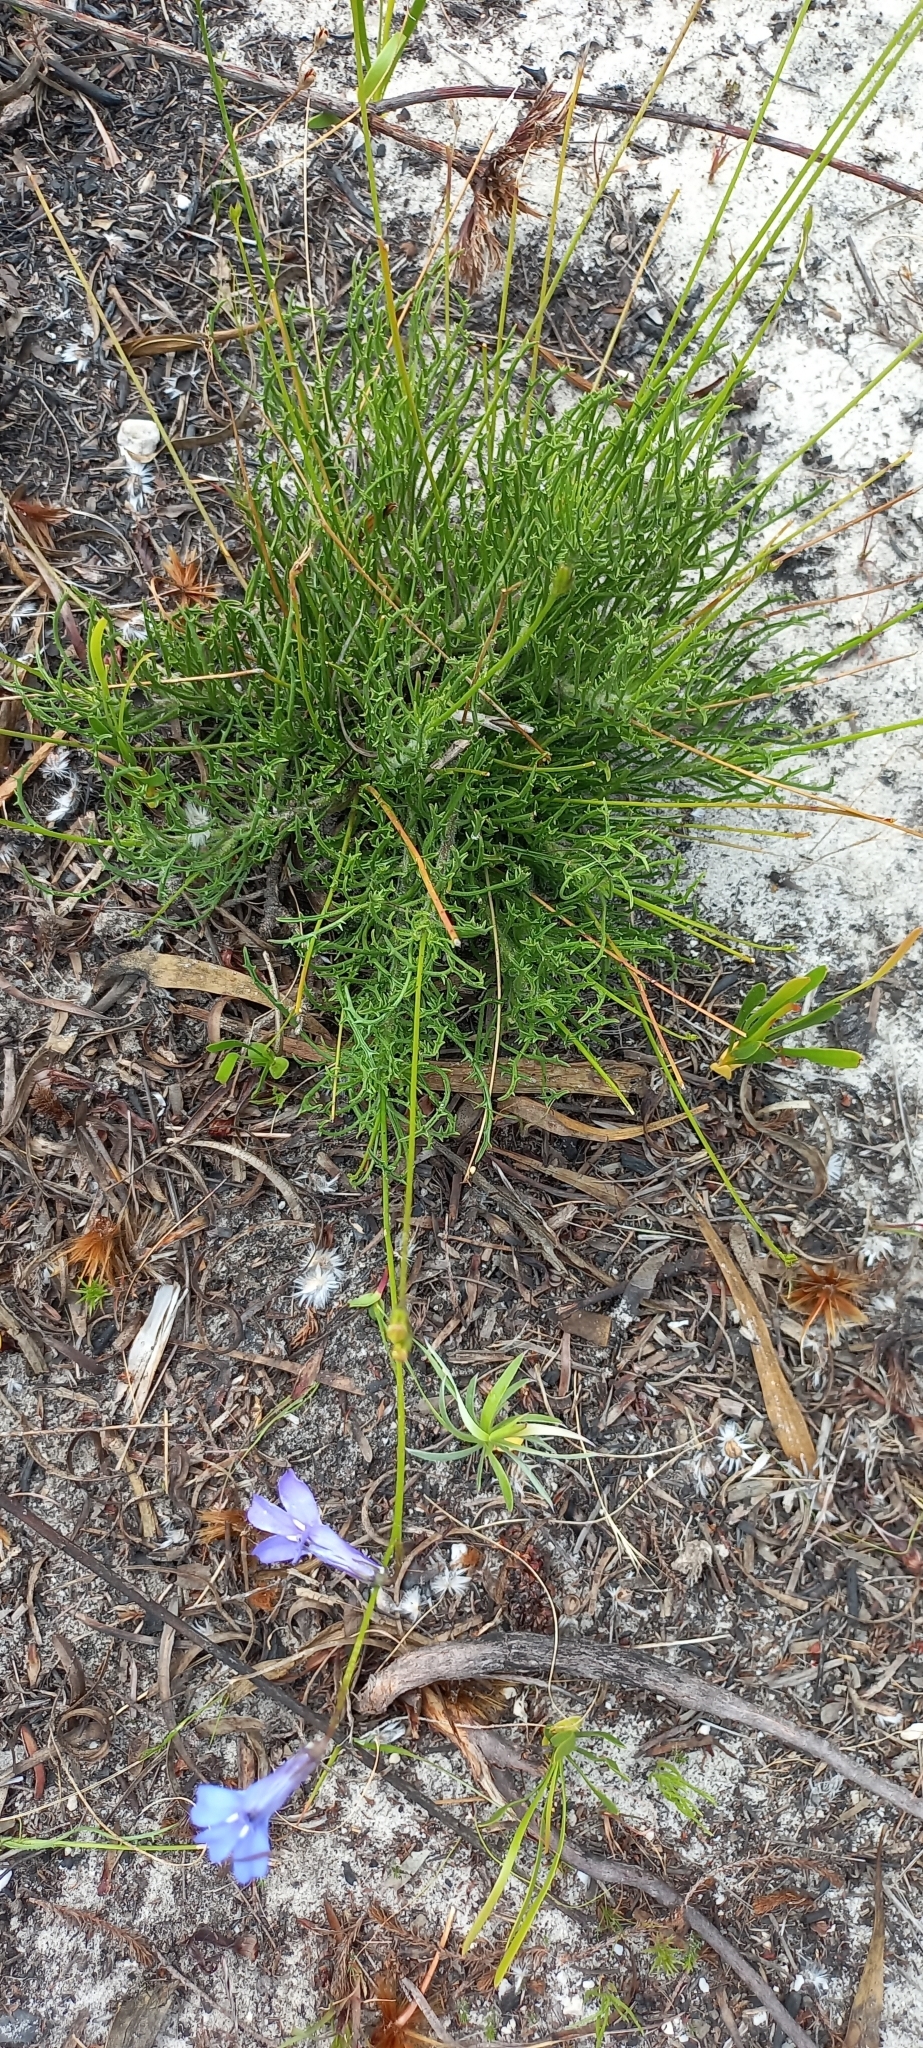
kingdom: Plantae
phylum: Tracheophyta
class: Magnoliopsida
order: Asterales
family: Campanulaceae
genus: Lobelia
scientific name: Lobelia coronopifolia
